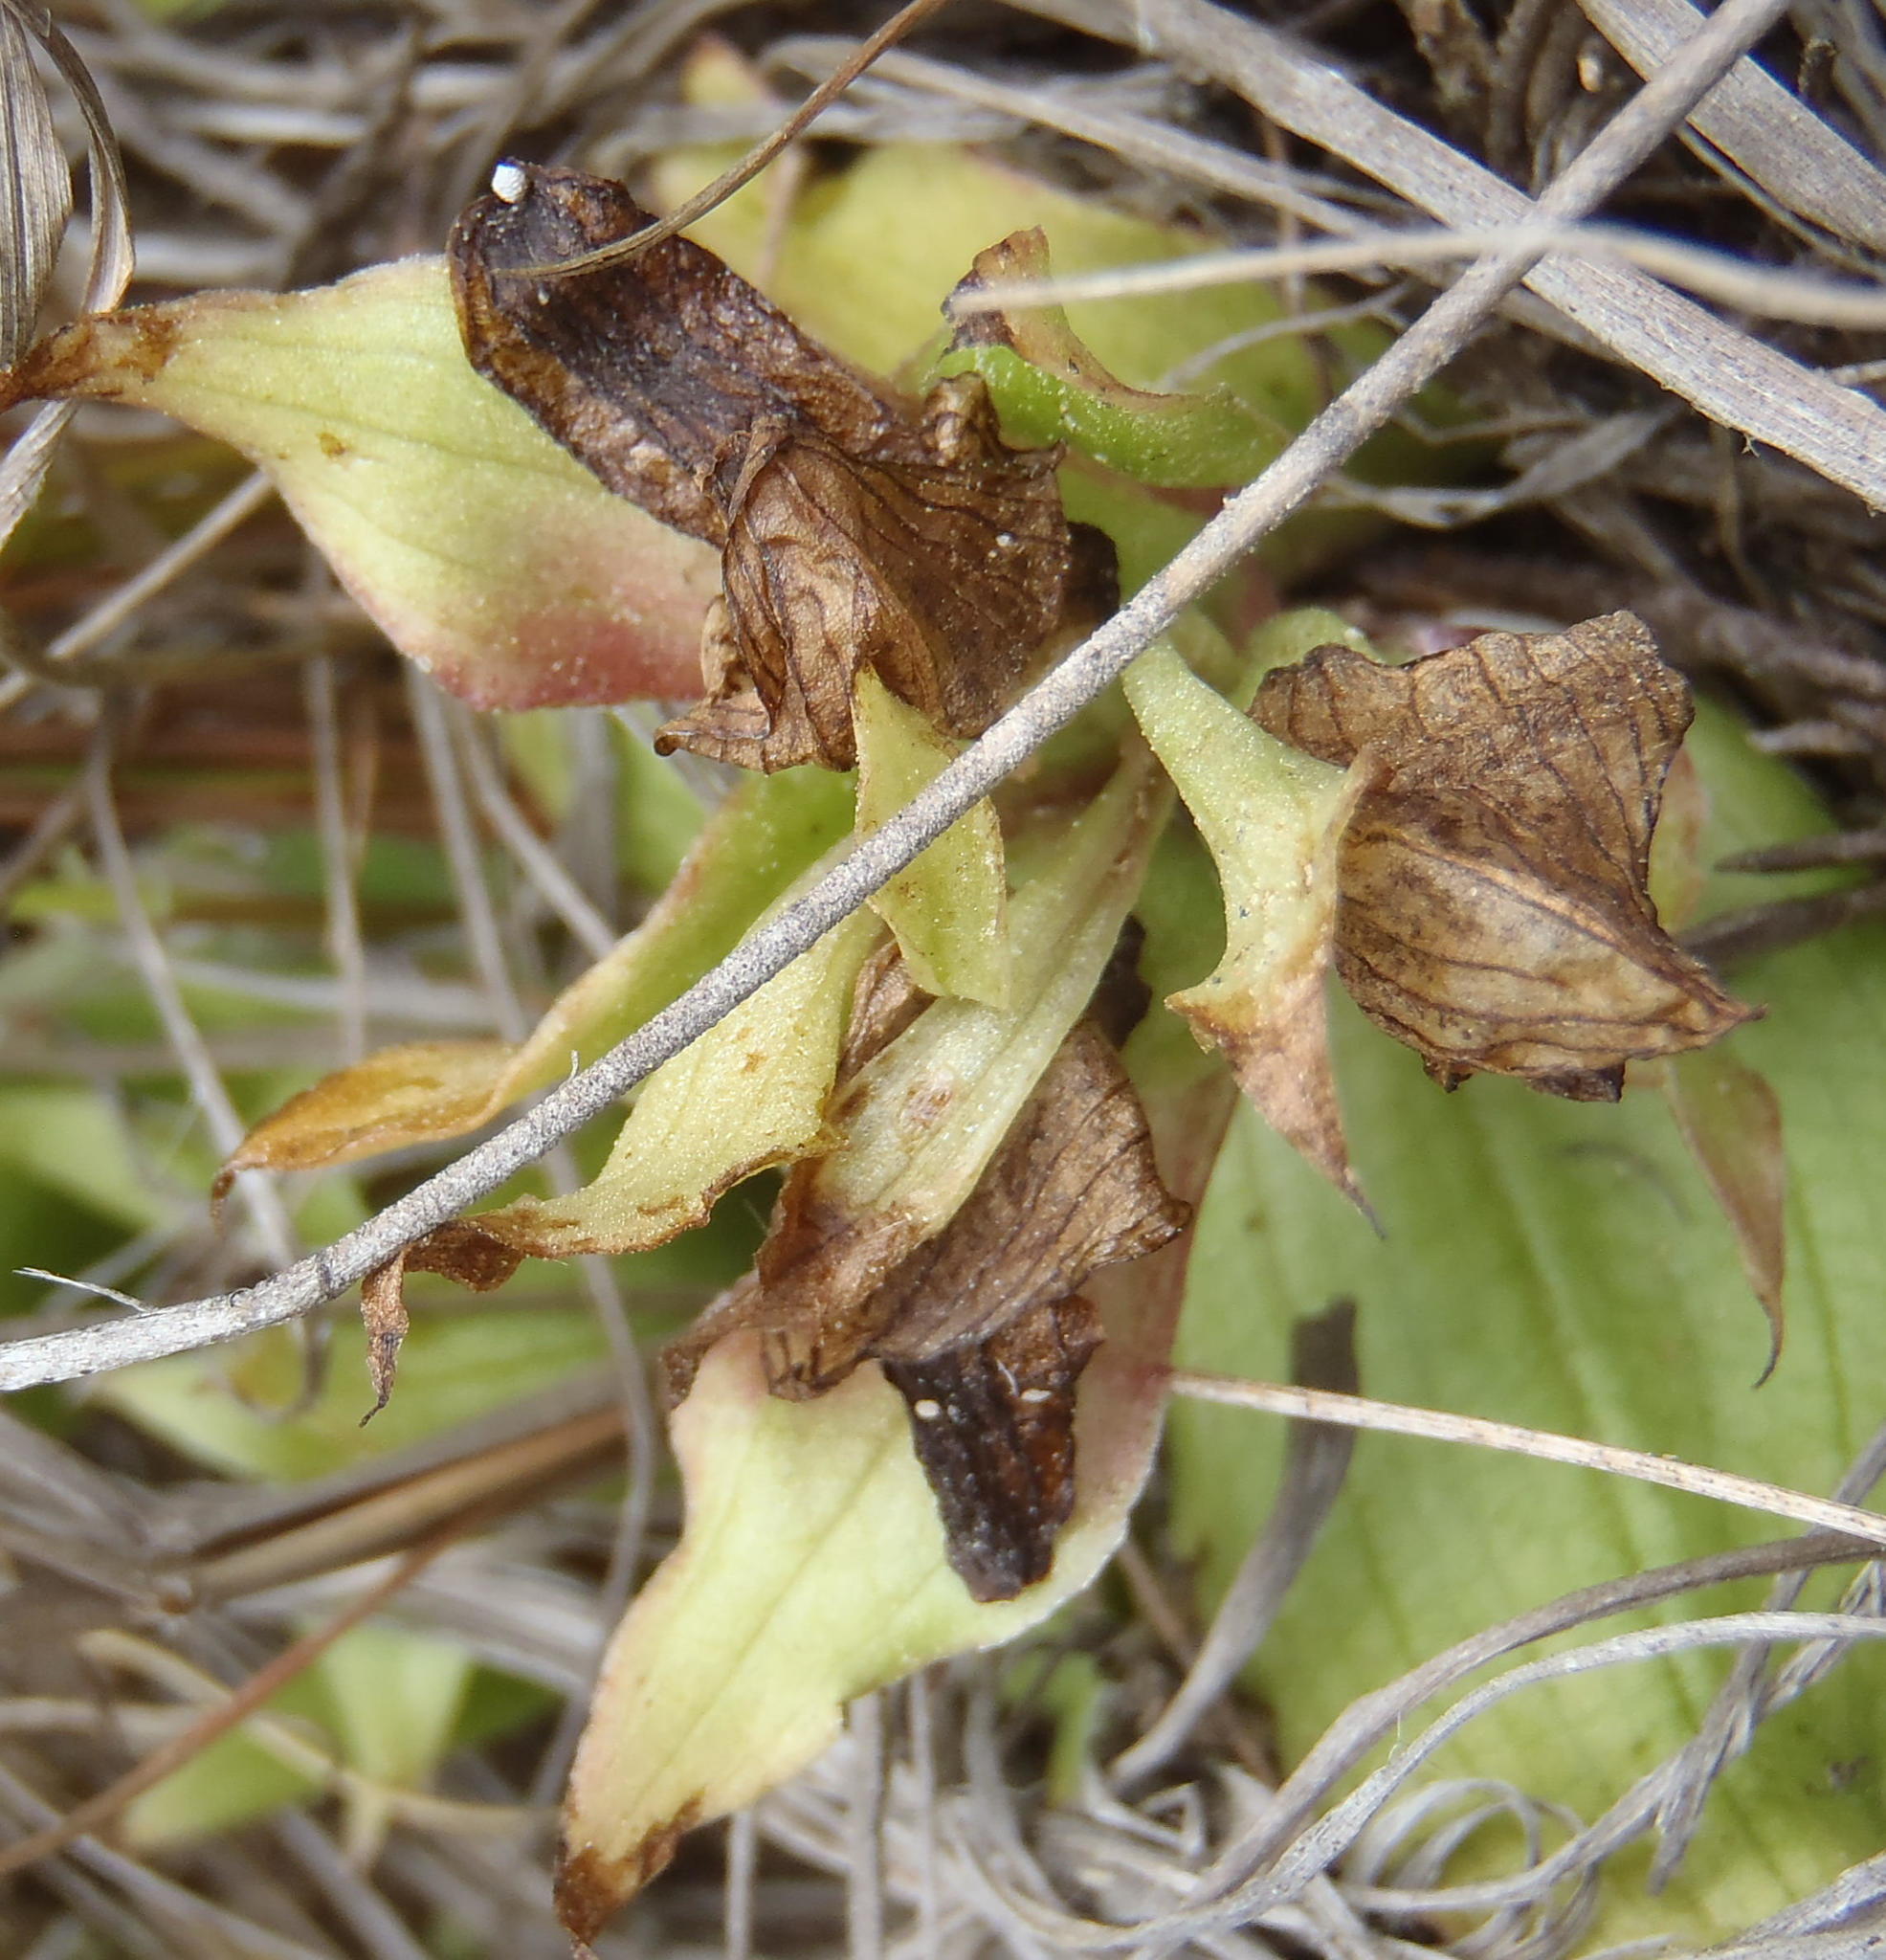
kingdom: Plantae
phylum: Tracheophyta
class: Liliopsida
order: Asparagales
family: Orchidaceae
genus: Satyrium
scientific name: Satyrium pumilum
